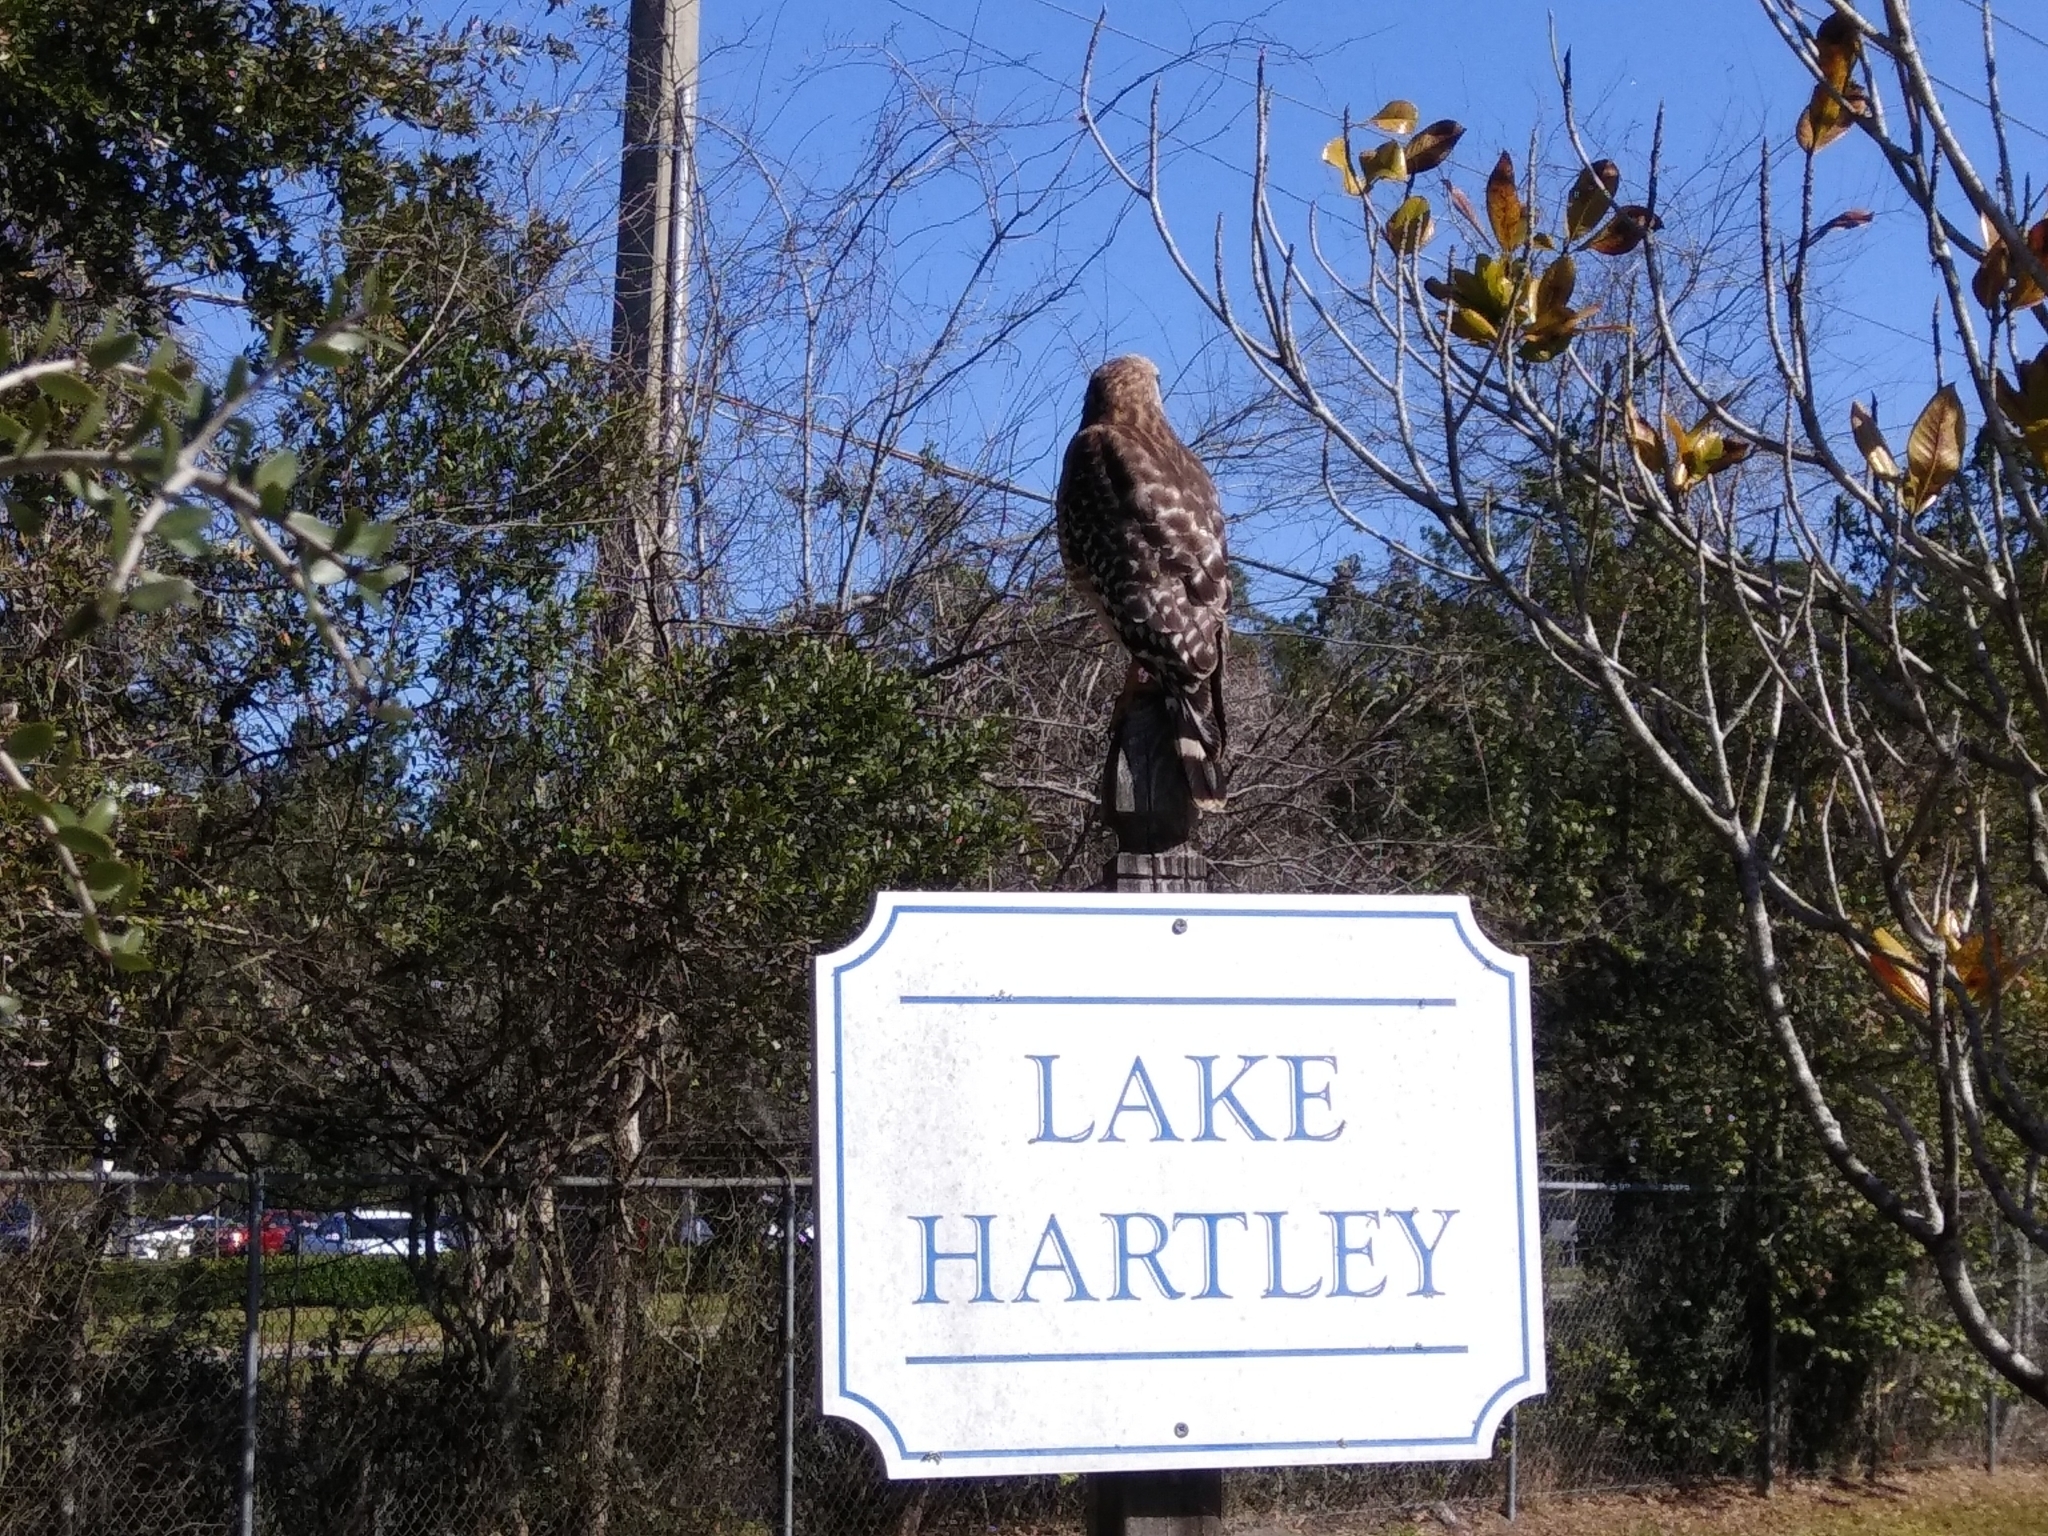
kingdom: Animalia
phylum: Chordata
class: Aves
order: Accipitriformes
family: Accipitridae
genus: Buteo
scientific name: Buteo lineatus
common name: Red-shouldered hawk
